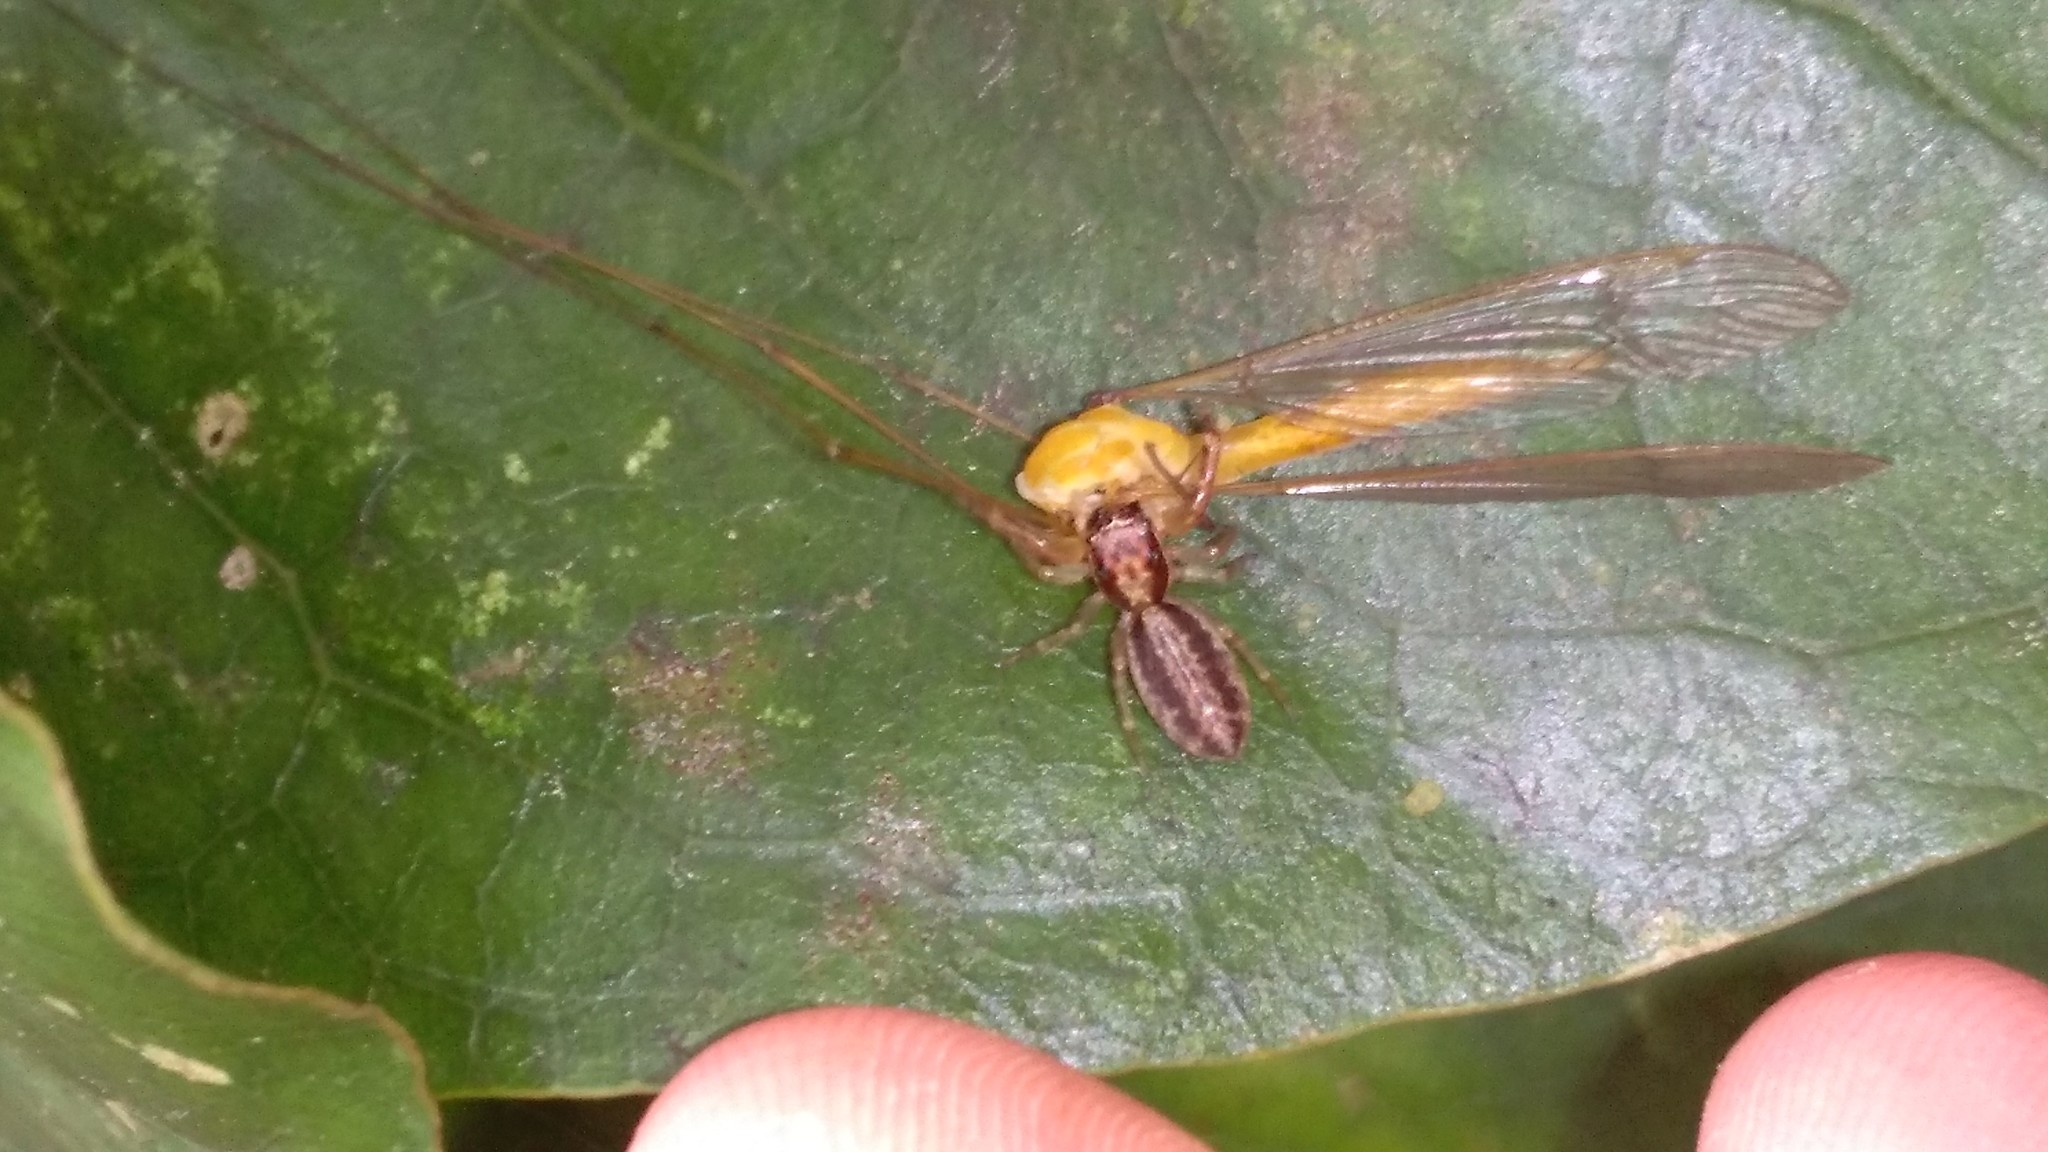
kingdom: Animalia
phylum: Arthropoda
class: Arachnida
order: Araneae
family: Salticidae
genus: Trite
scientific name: Trite mustilina
